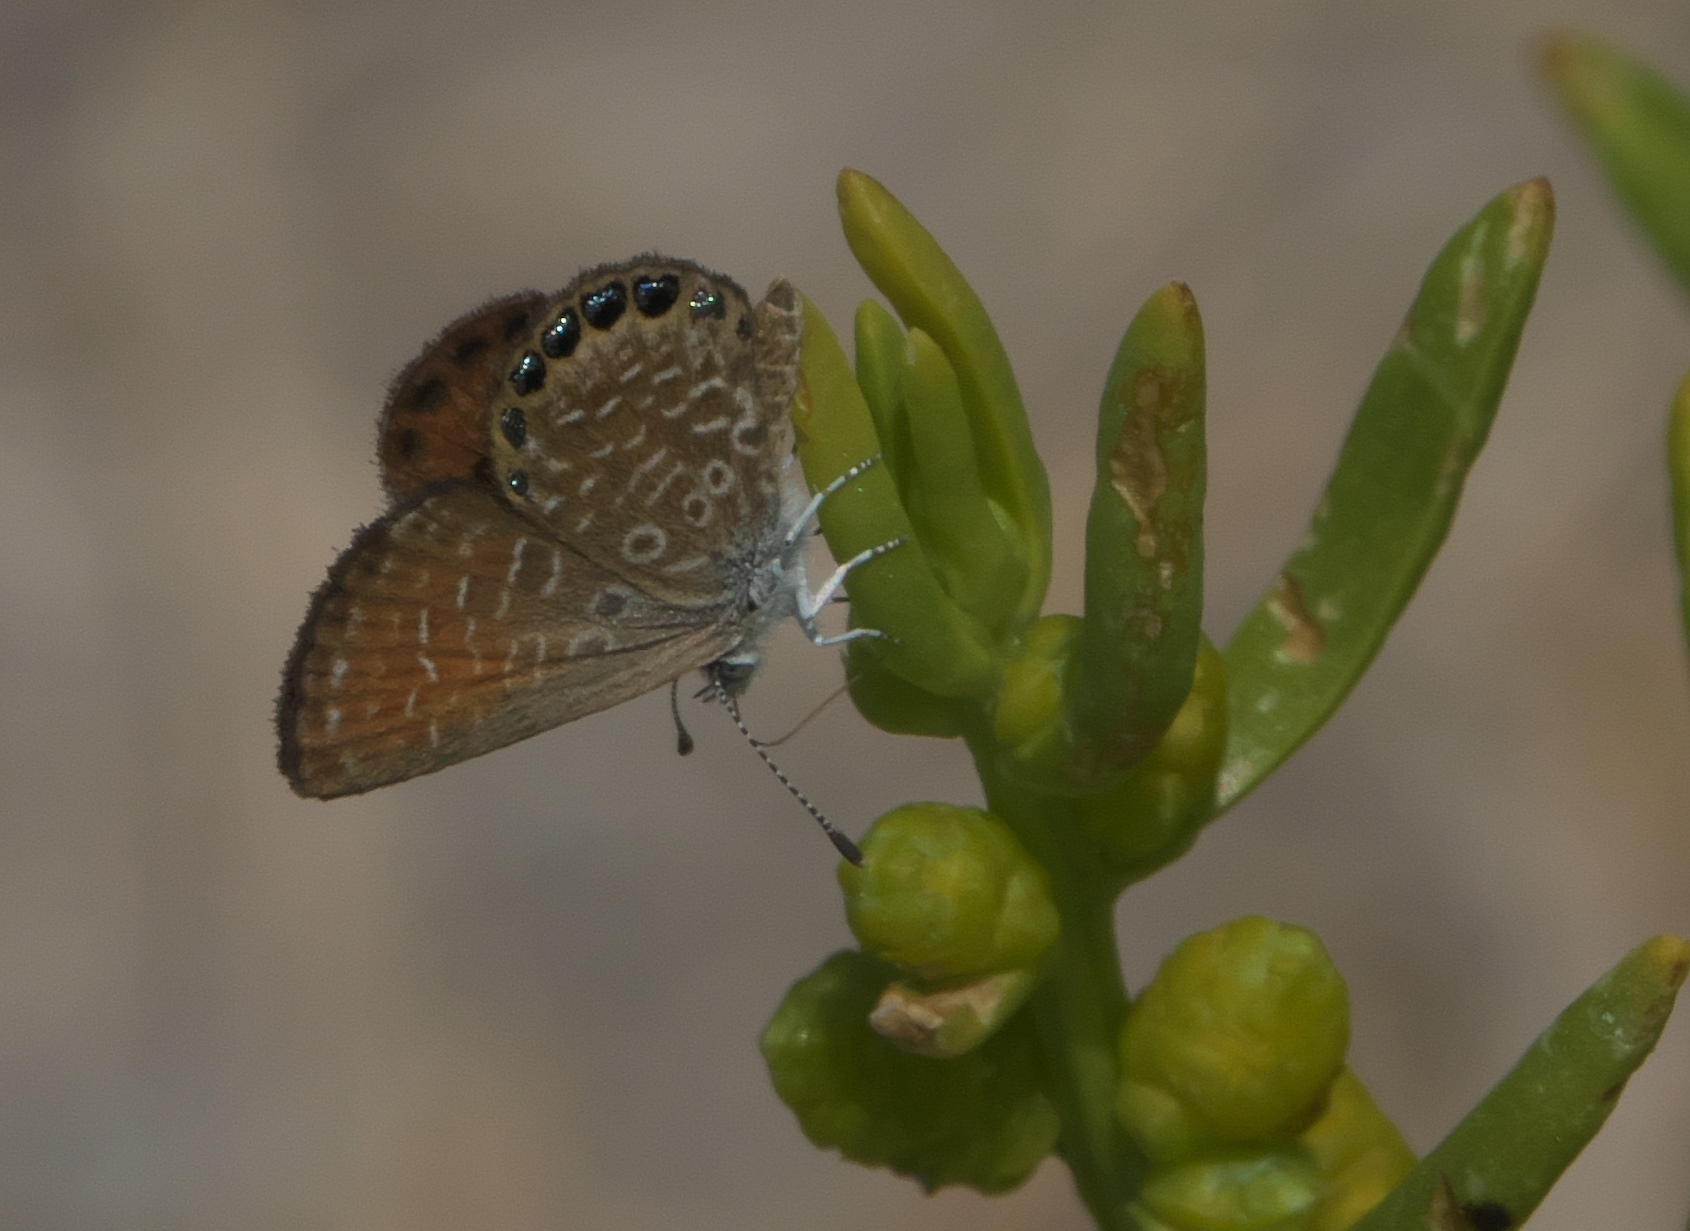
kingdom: Animalia
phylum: Arthropoda
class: Insecta
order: Lepidoptera
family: Lycaenidae
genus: Brephidium
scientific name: Brephidium isophthalma
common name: Eastern pygmy-blue
